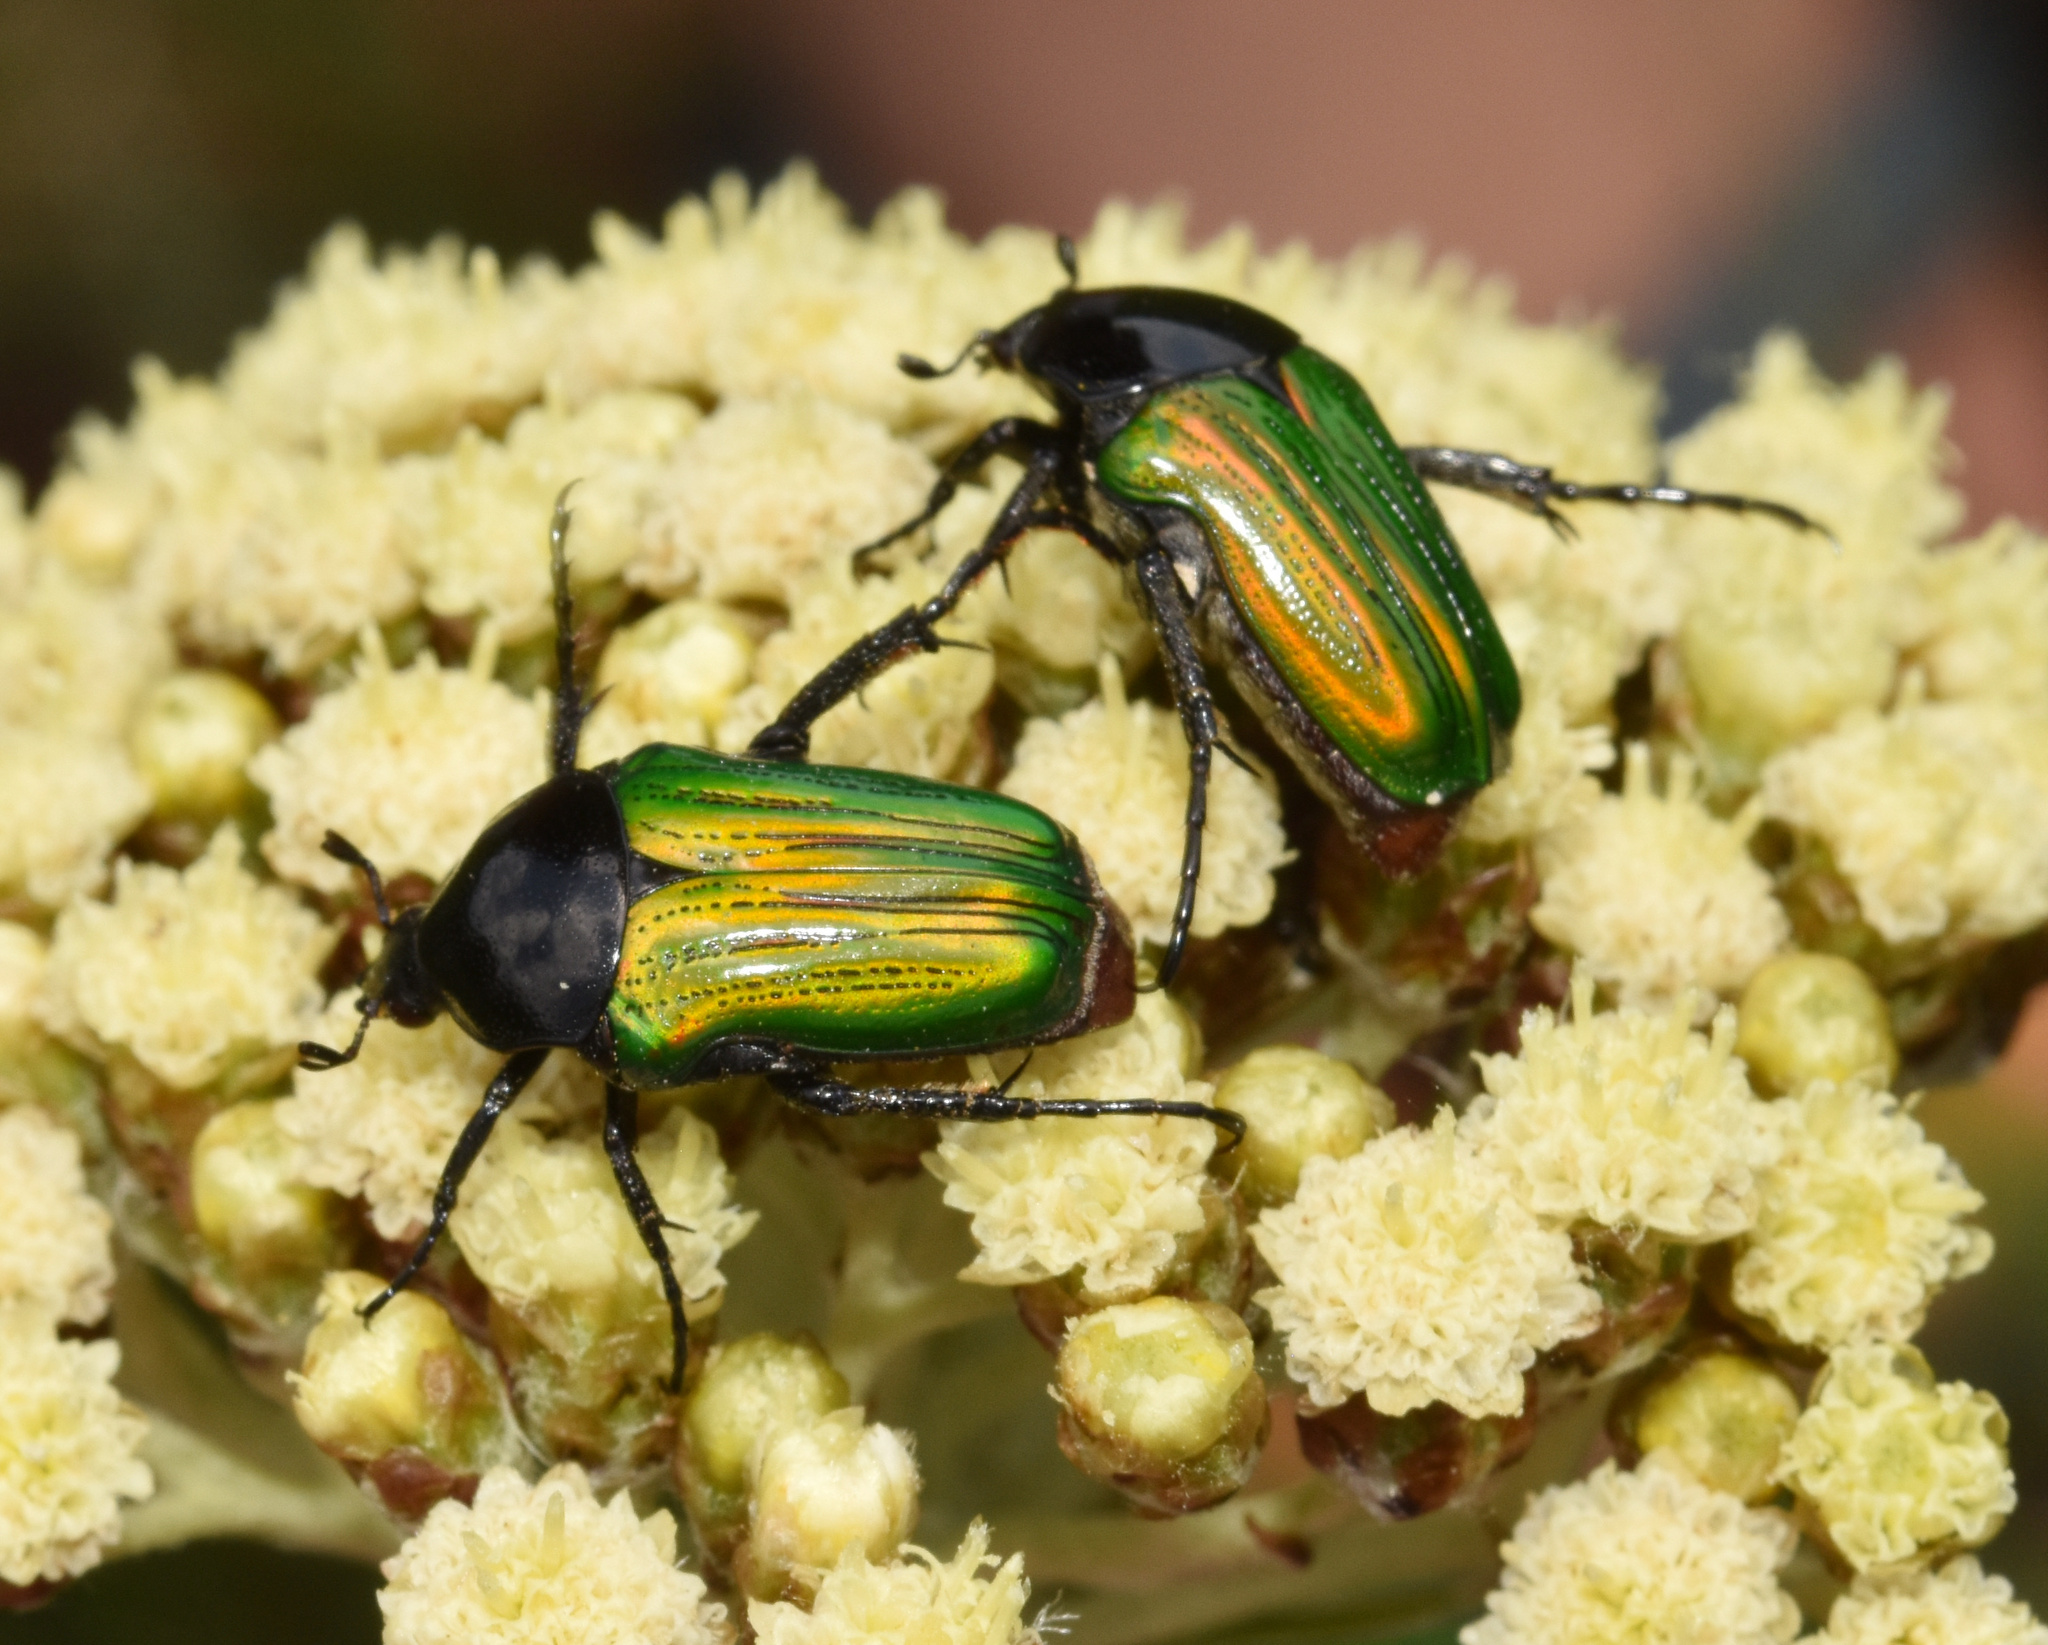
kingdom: Animalia
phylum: Arthropoda
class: Insecta
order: Coleoptera
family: Scarabaeidae
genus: Leucocelis
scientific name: Leucocelis haemorrhoidalis
